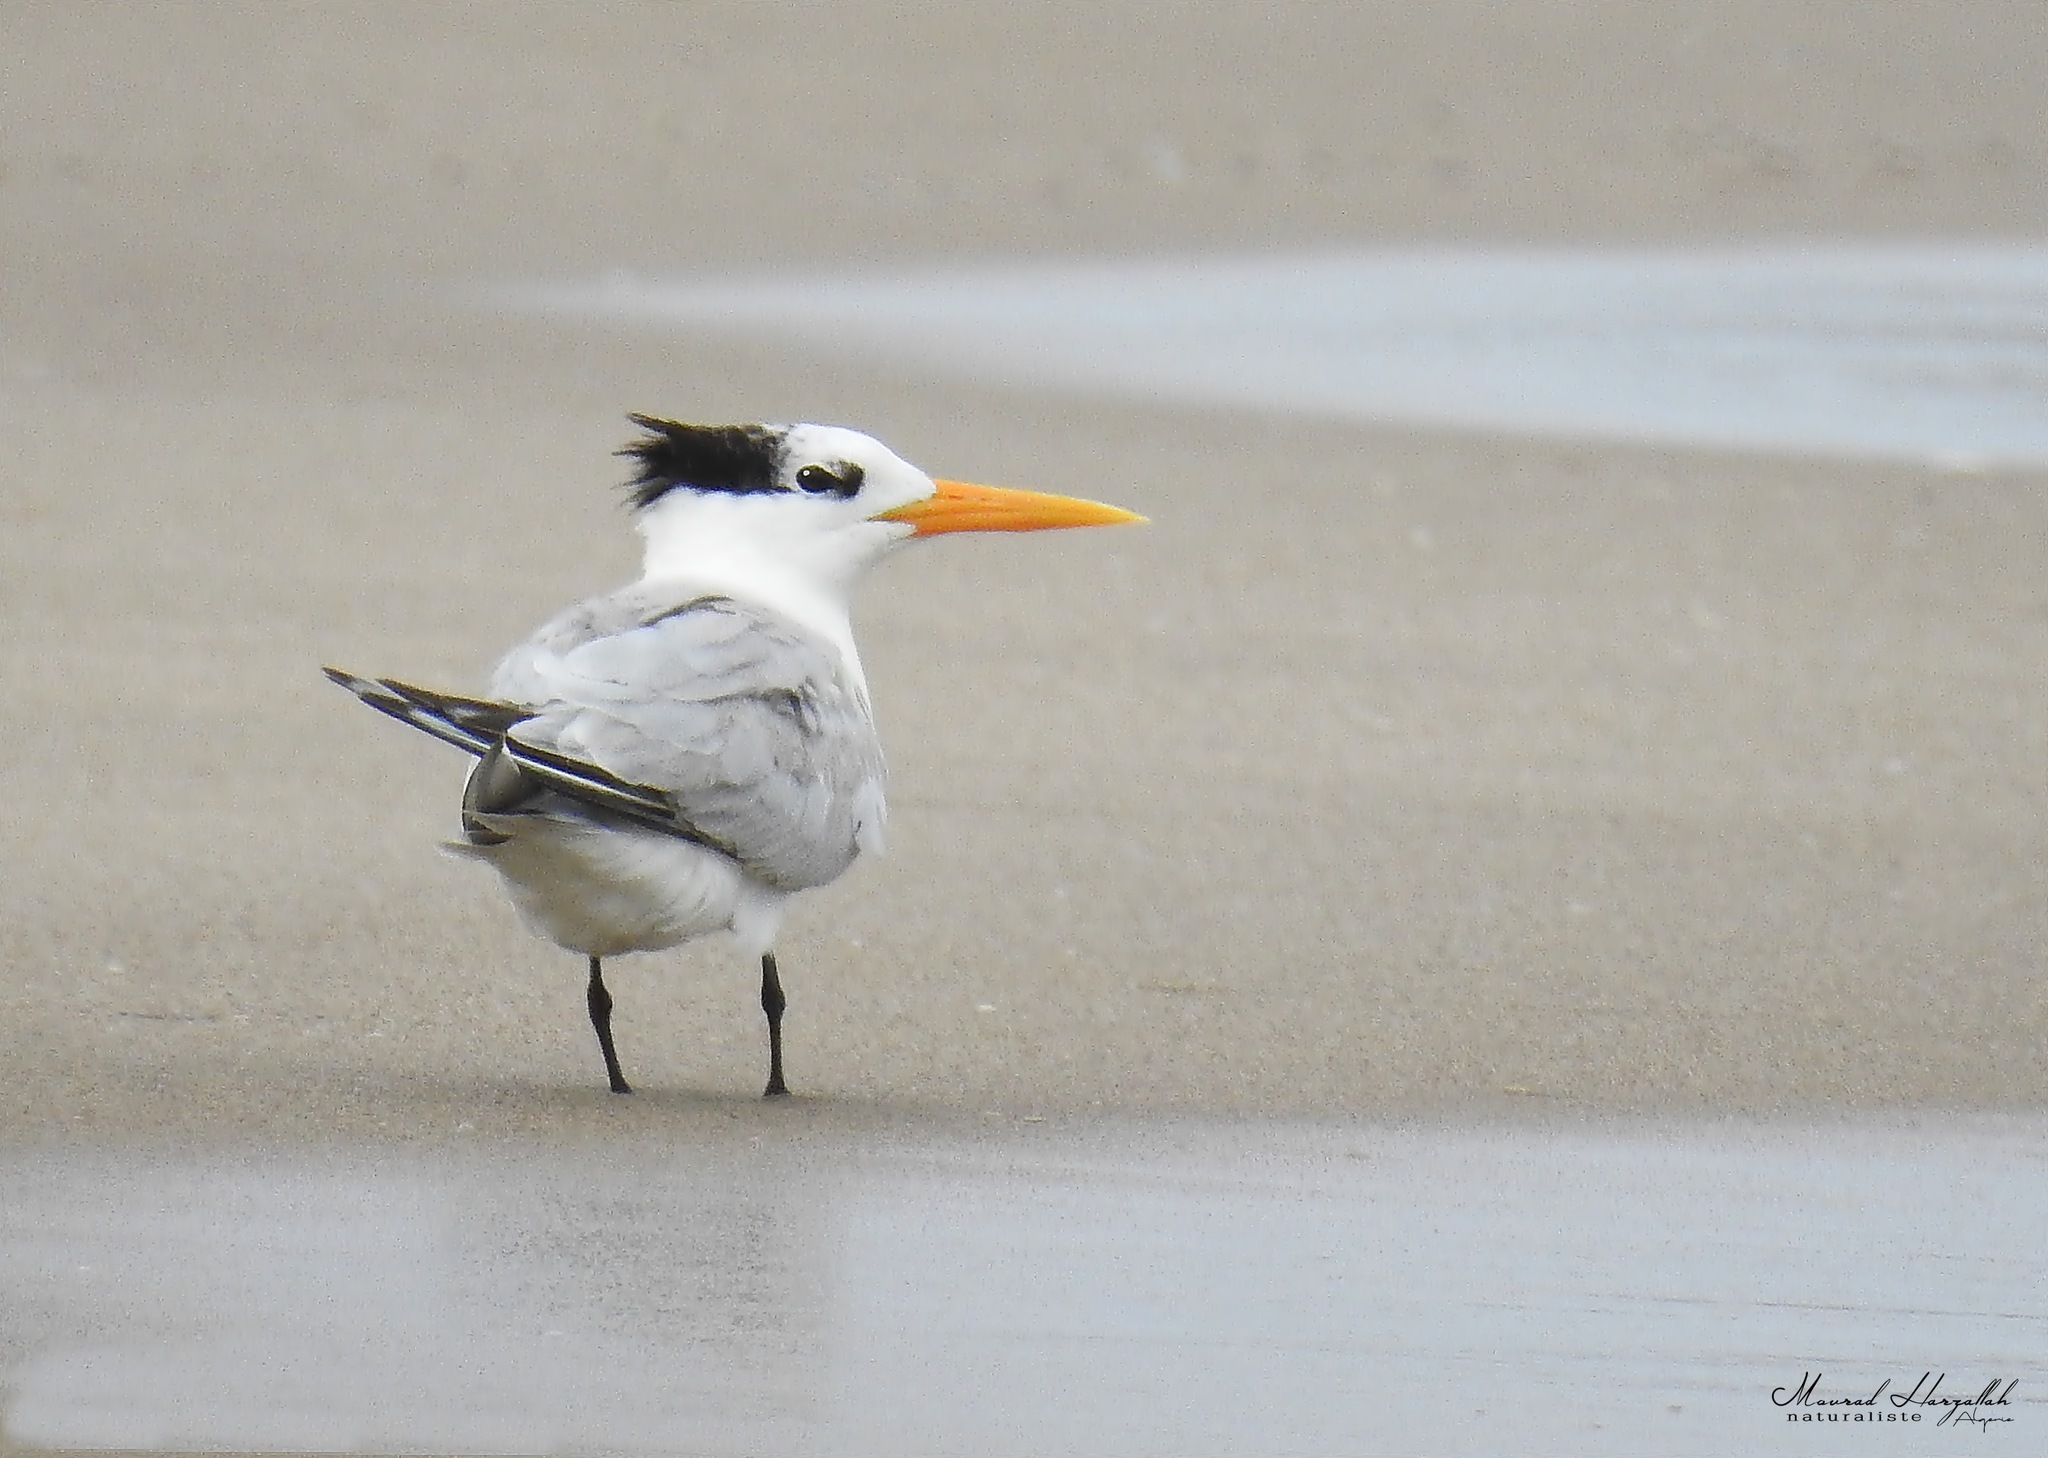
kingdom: Animalia
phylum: Chordata
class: Aves
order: Charadriiformes
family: Laridae
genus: Thalasseus
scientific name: Thalasseus bengalensis
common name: Lesser crested tern
